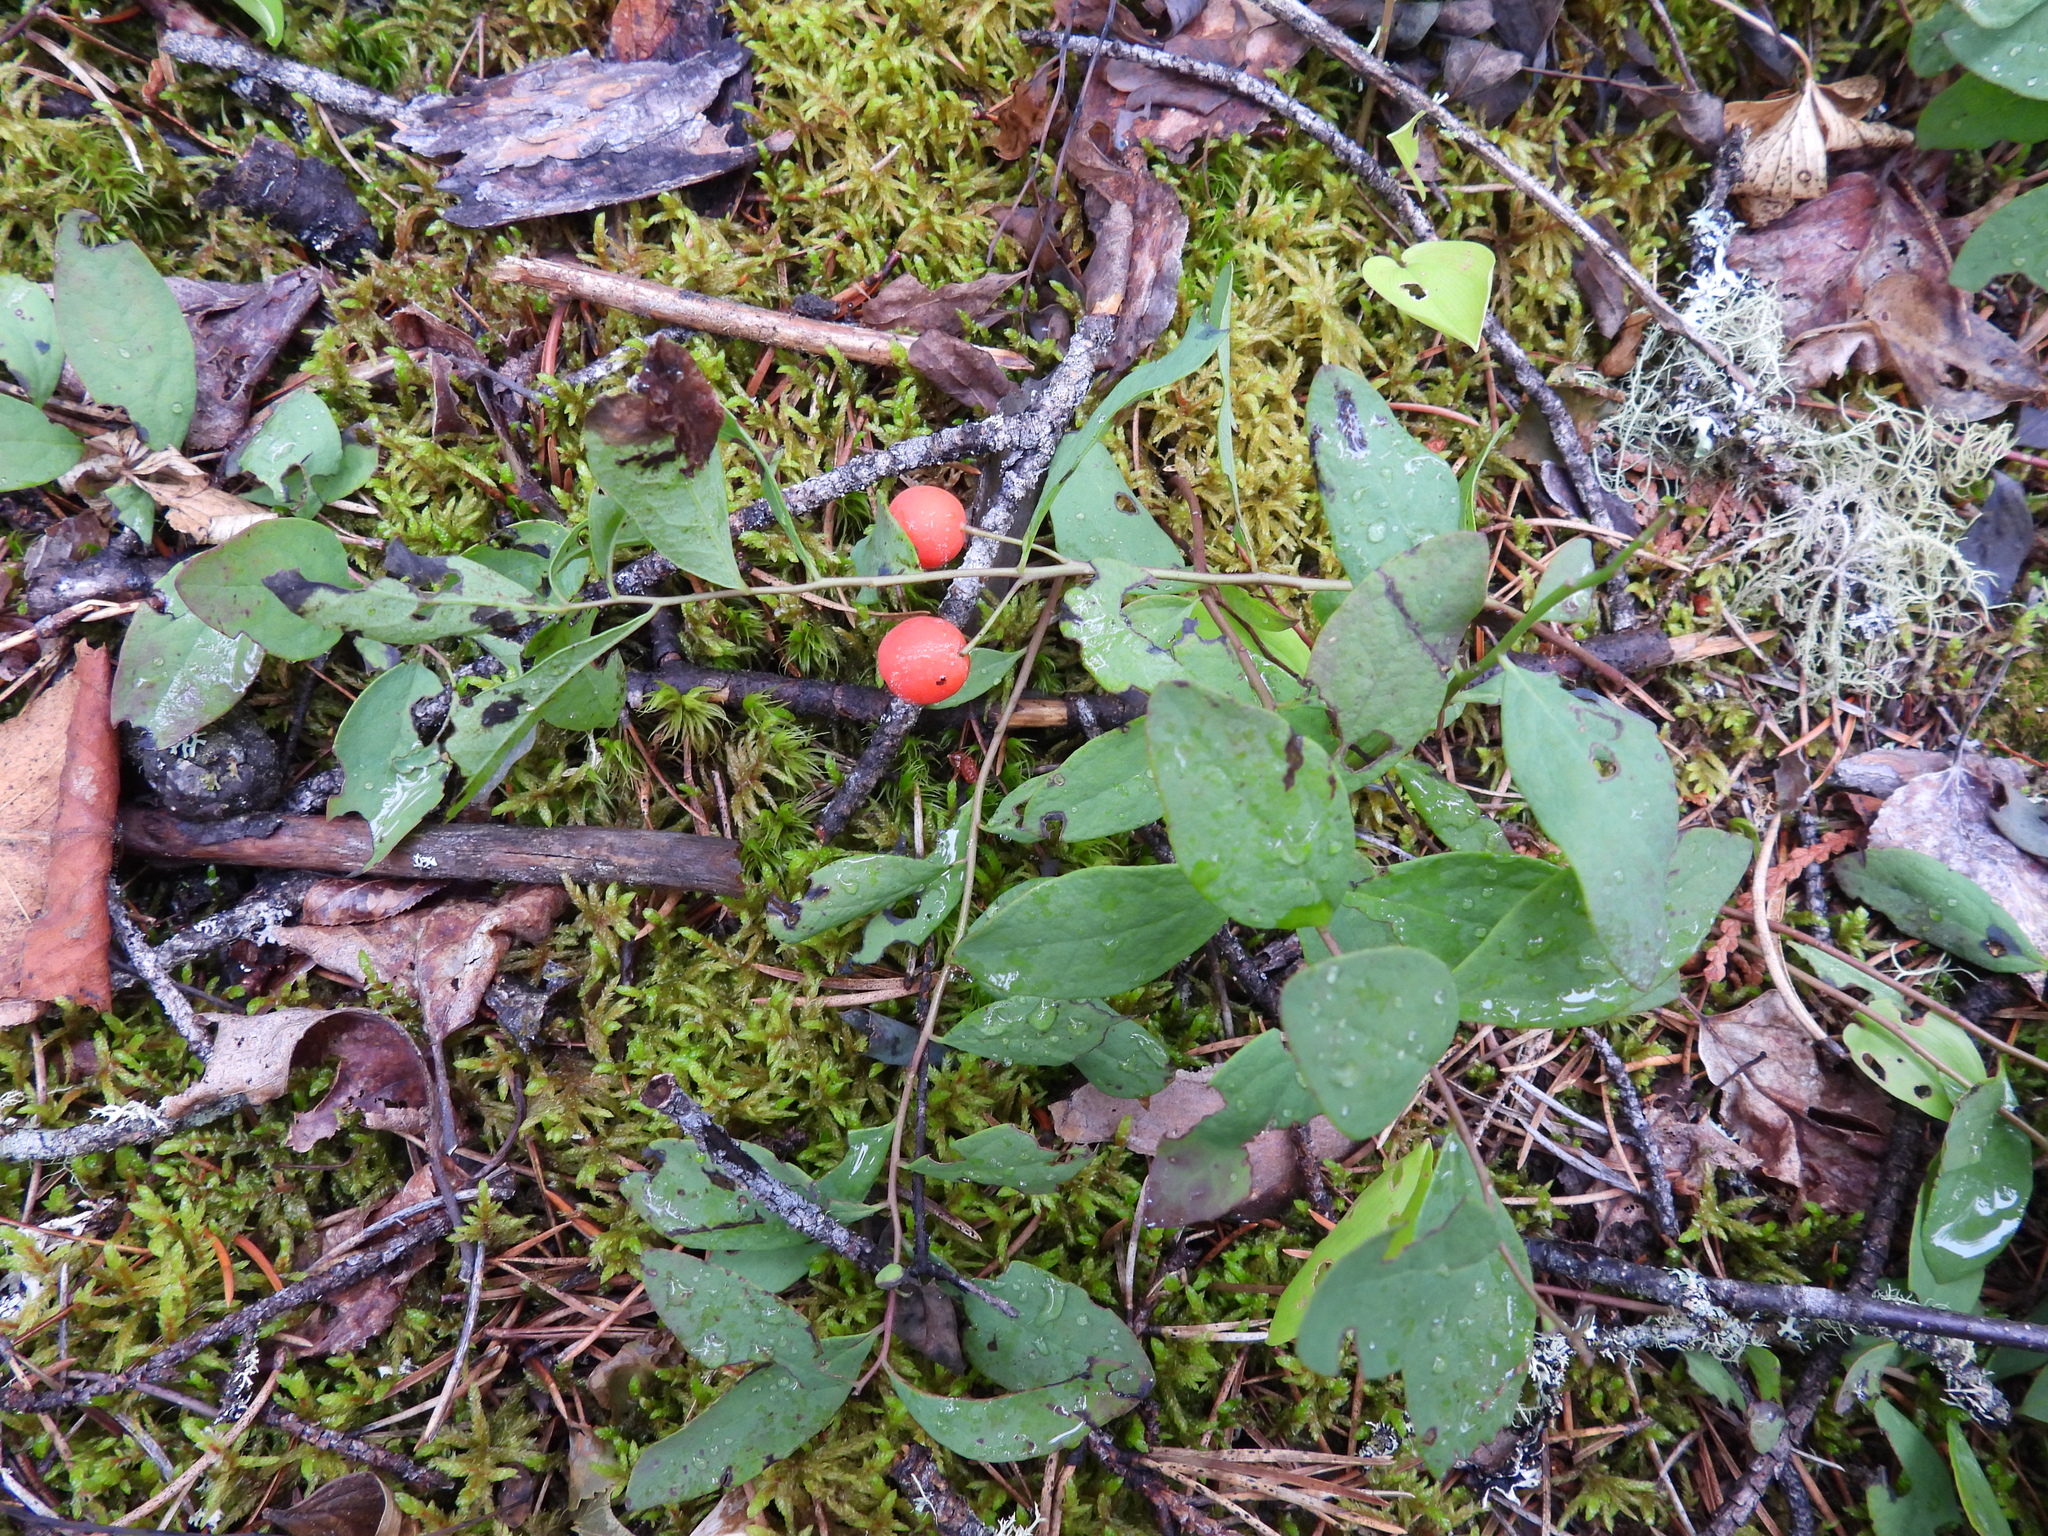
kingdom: Plantae
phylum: Tracheophyta
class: Magnoliopsida
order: Santalales
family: Comandraceae
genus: Geocaulon
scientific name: Geocaulon lividum
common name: Earthberry
